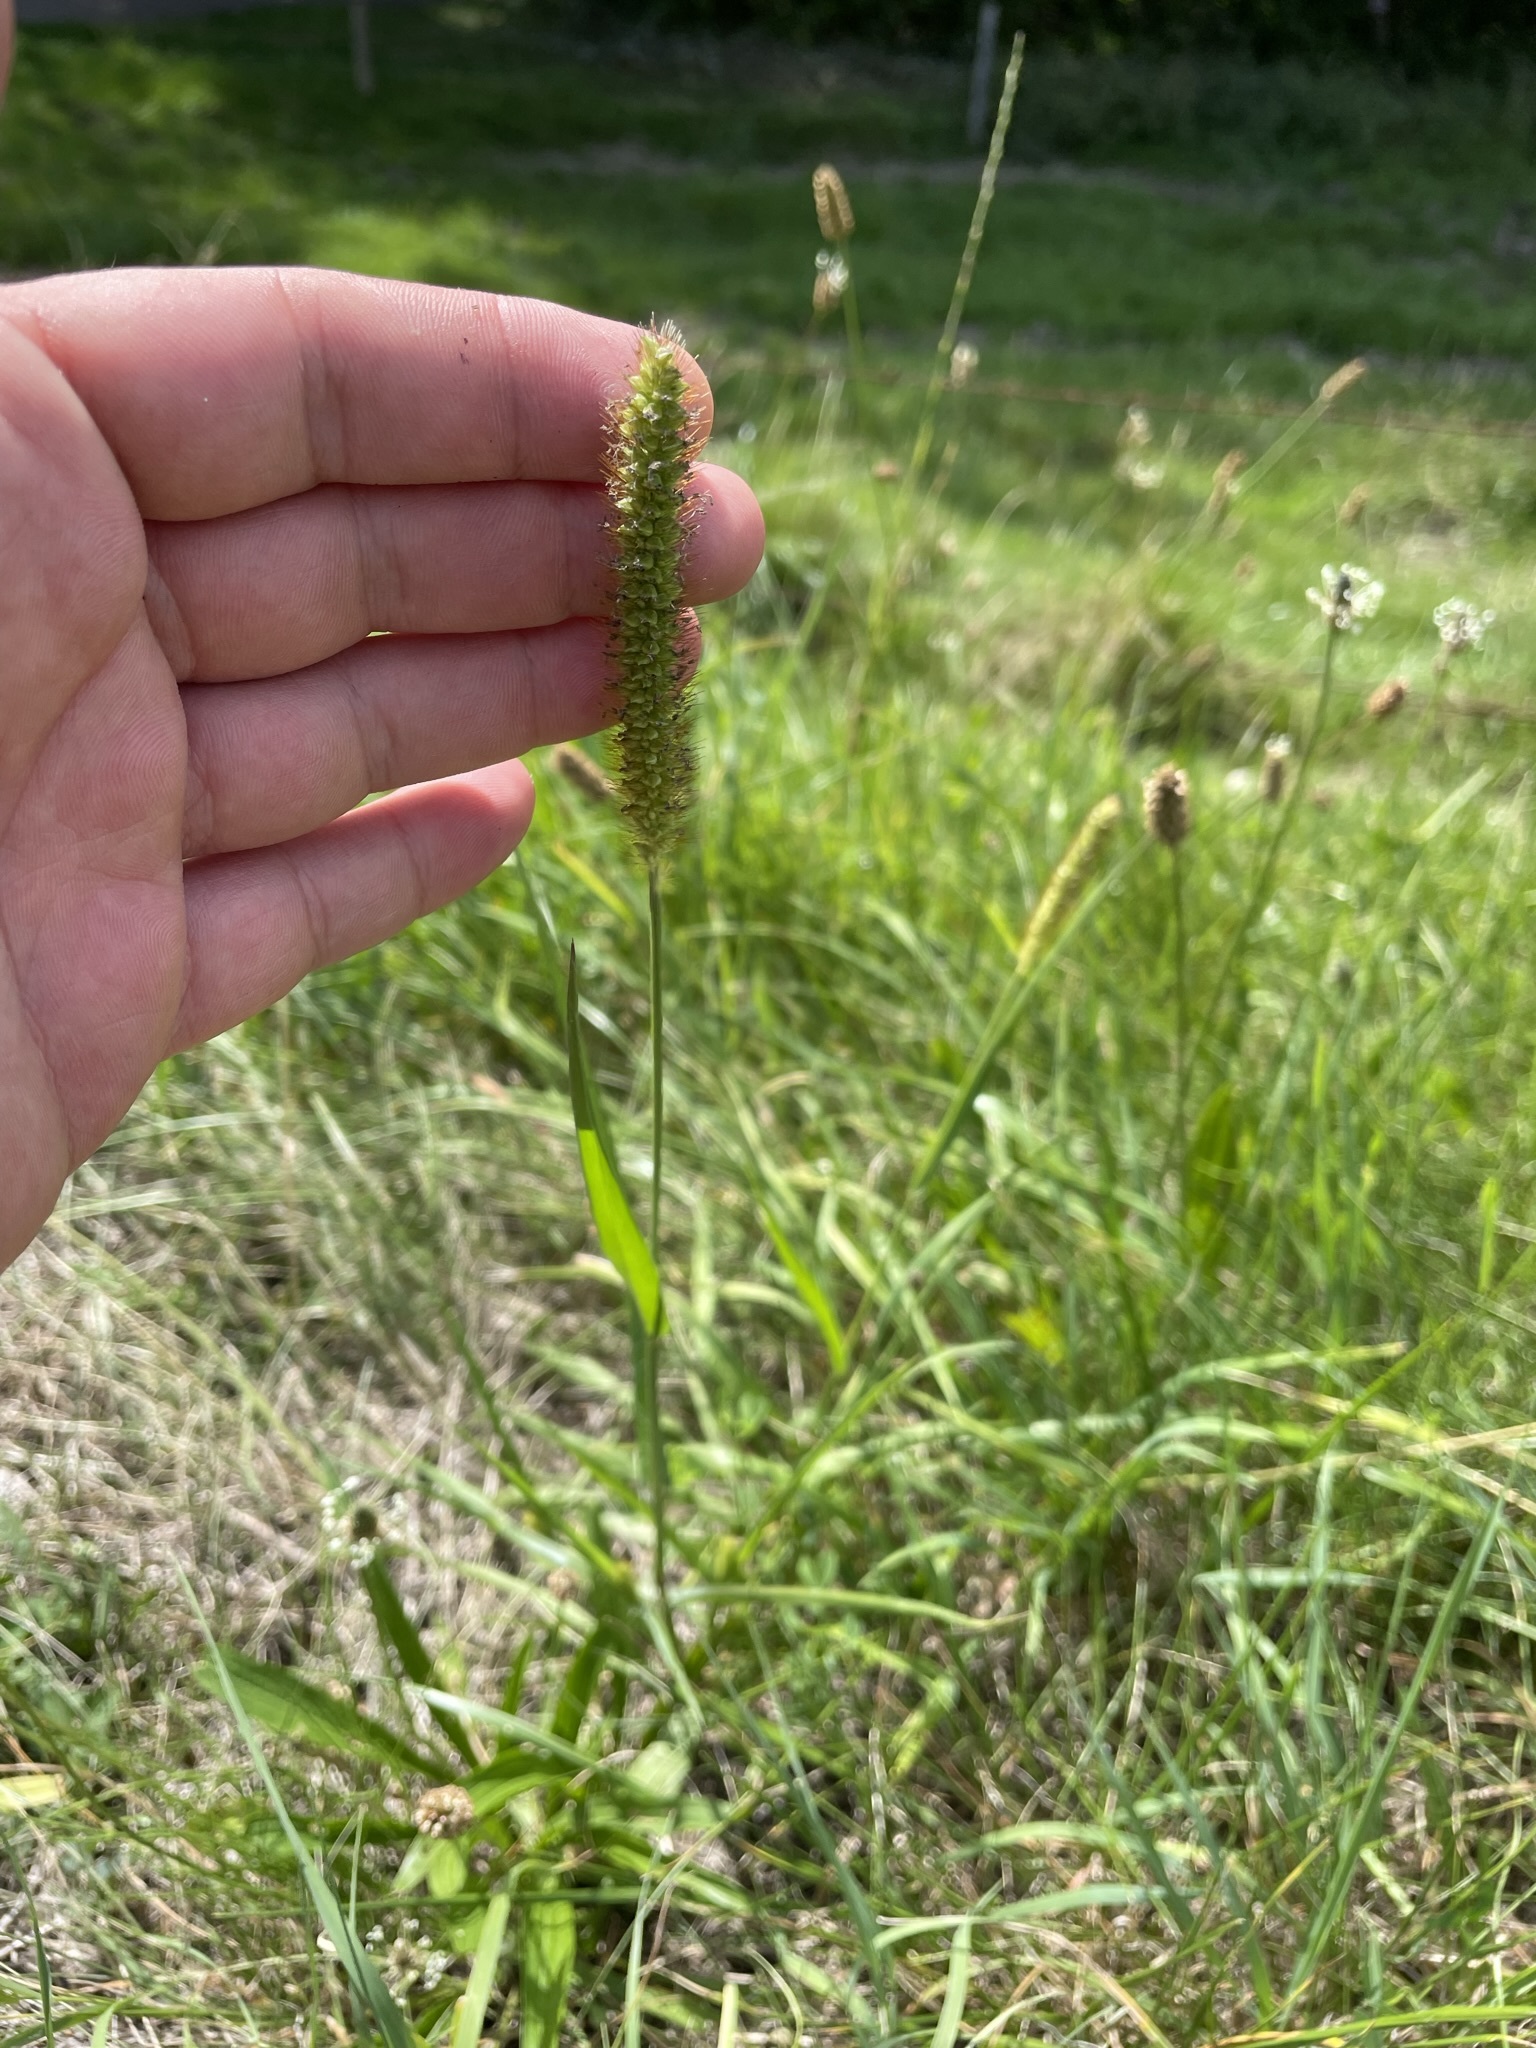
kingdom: Plantae
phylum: Tracheophyta
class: Liliopsida
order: Poales
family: Poaceae
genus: Setaria
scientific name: Setaria pumila
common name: Yellow bristle-grass
